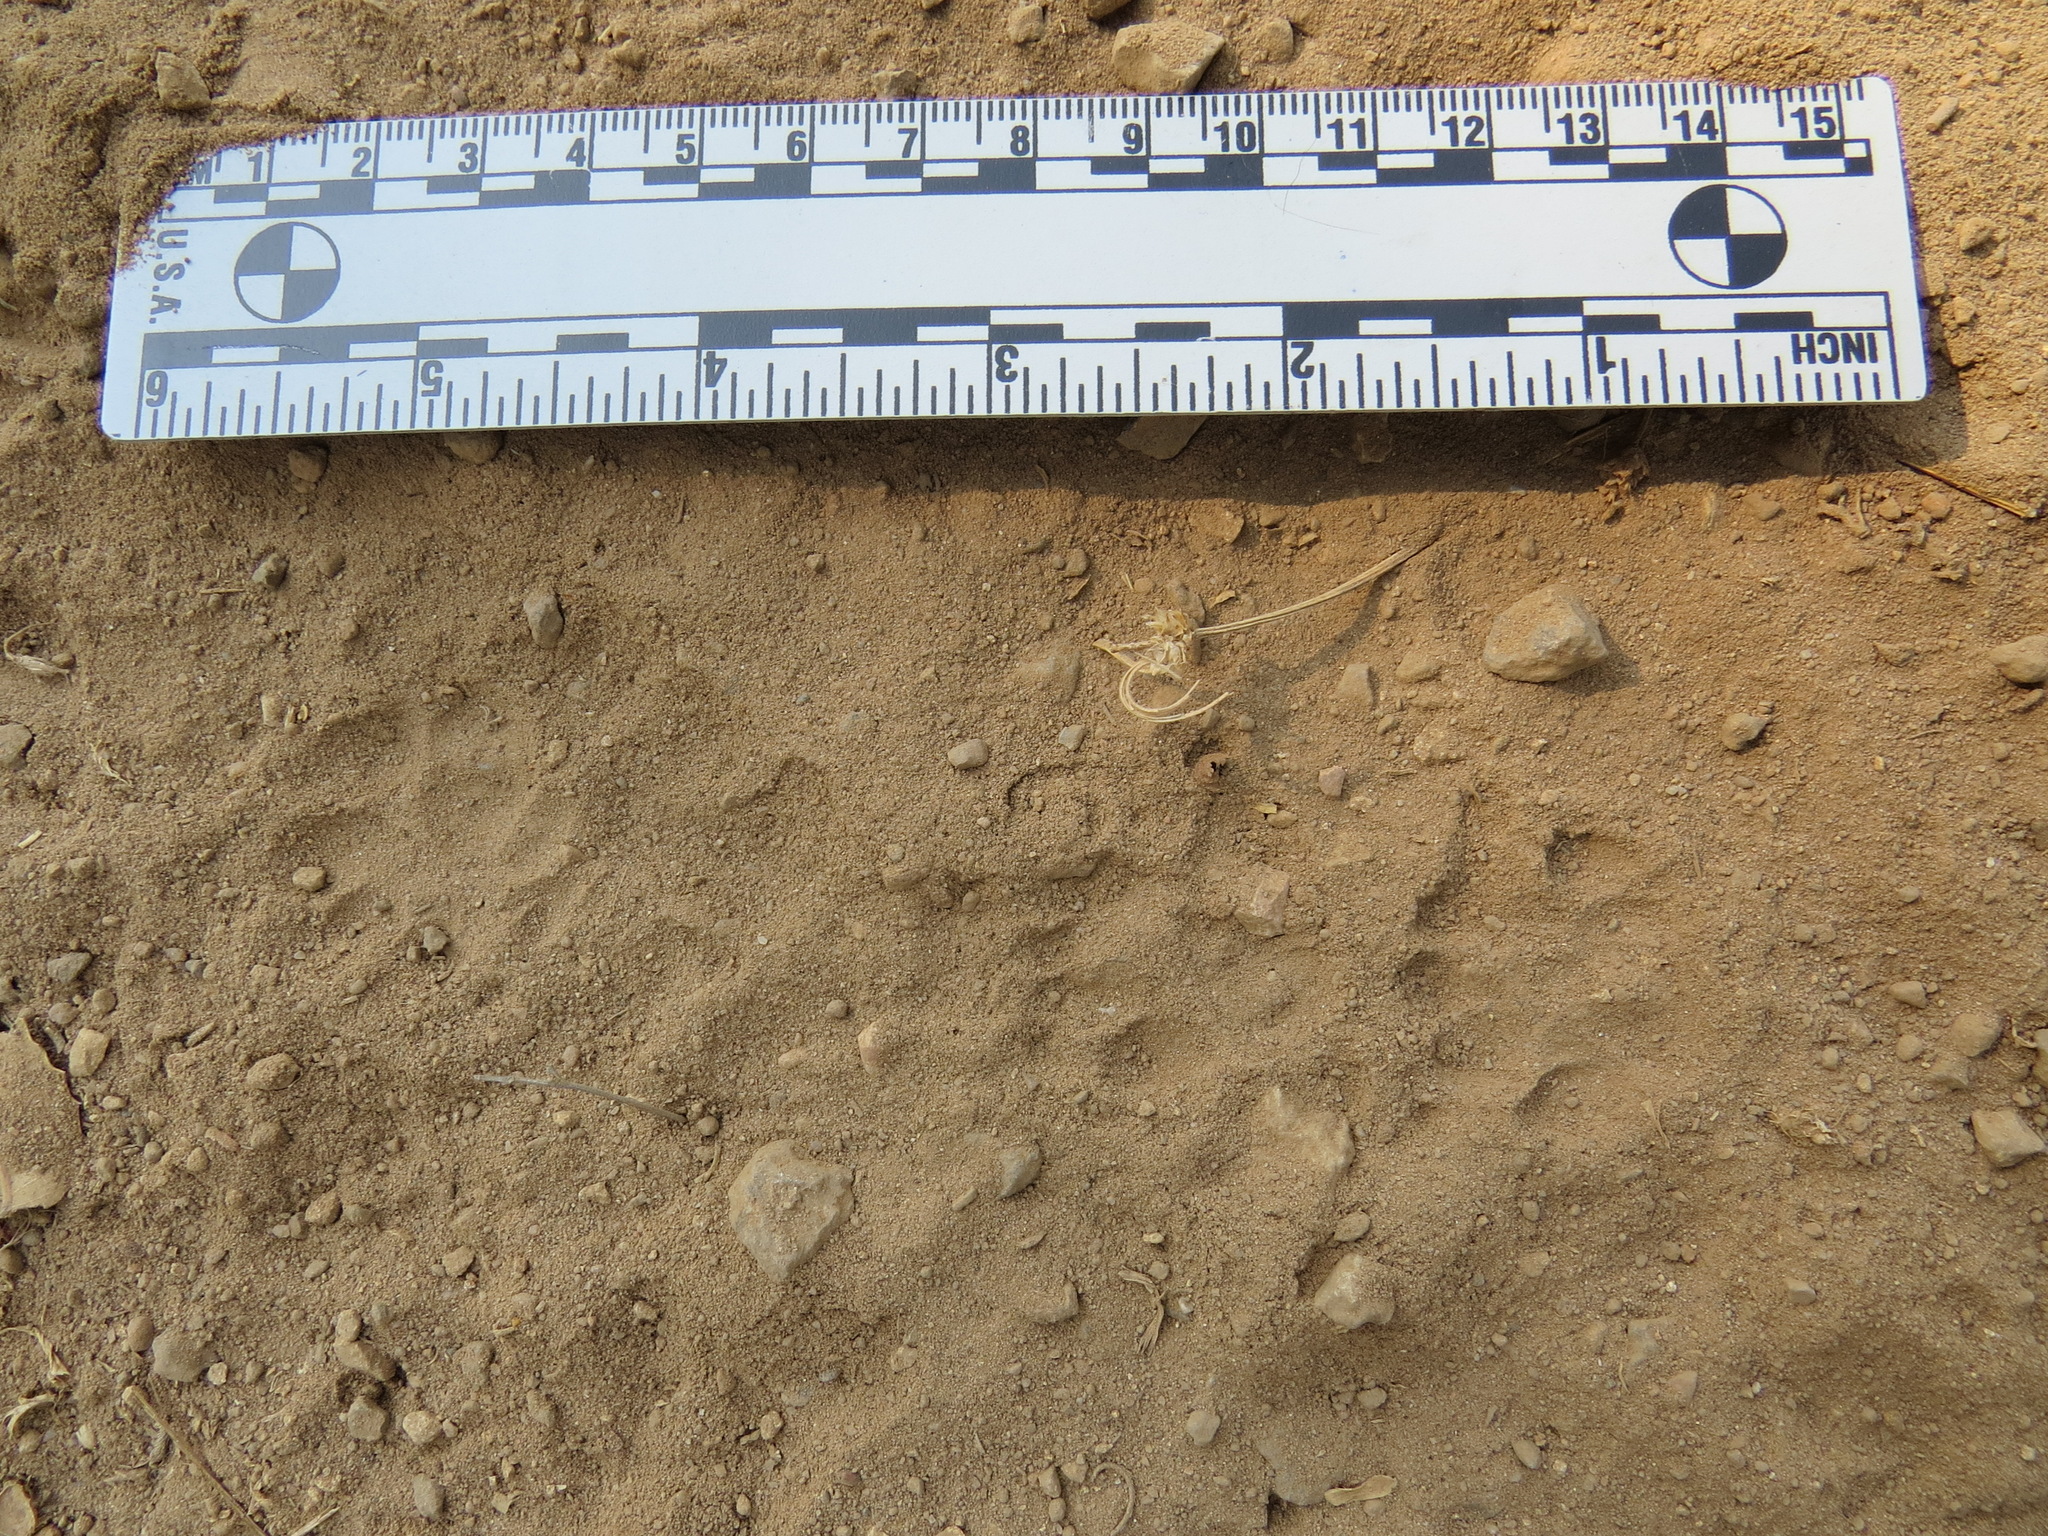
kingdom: Animalia
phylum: Chordata
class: Mammalia
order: Carnivora
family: Mephitidae
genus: Mephitis
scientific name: Mephitis mephitis
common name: Striped skunk
